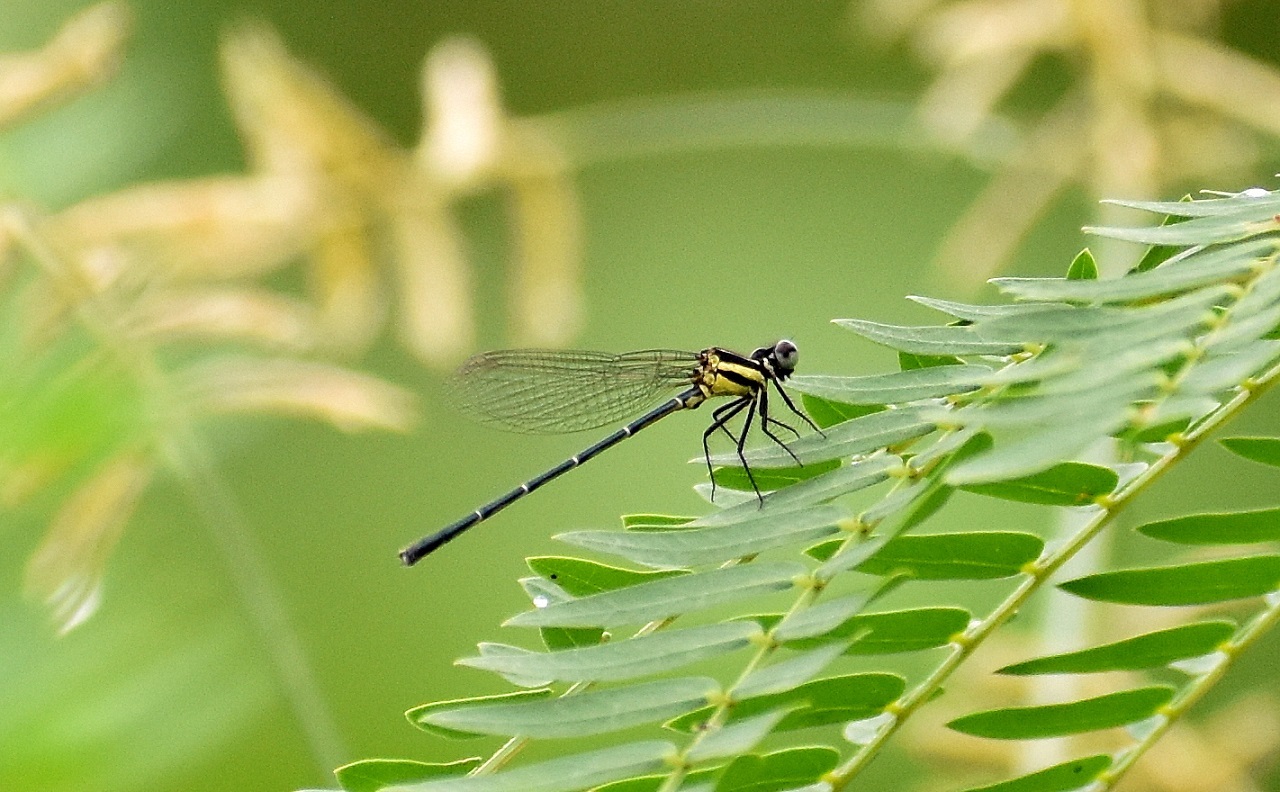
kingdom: Animalia
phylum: Arthropoda
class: Insecta
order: Odonata
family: Platycnemididae
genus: Onychargia
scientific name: Onychargia atrocyana
